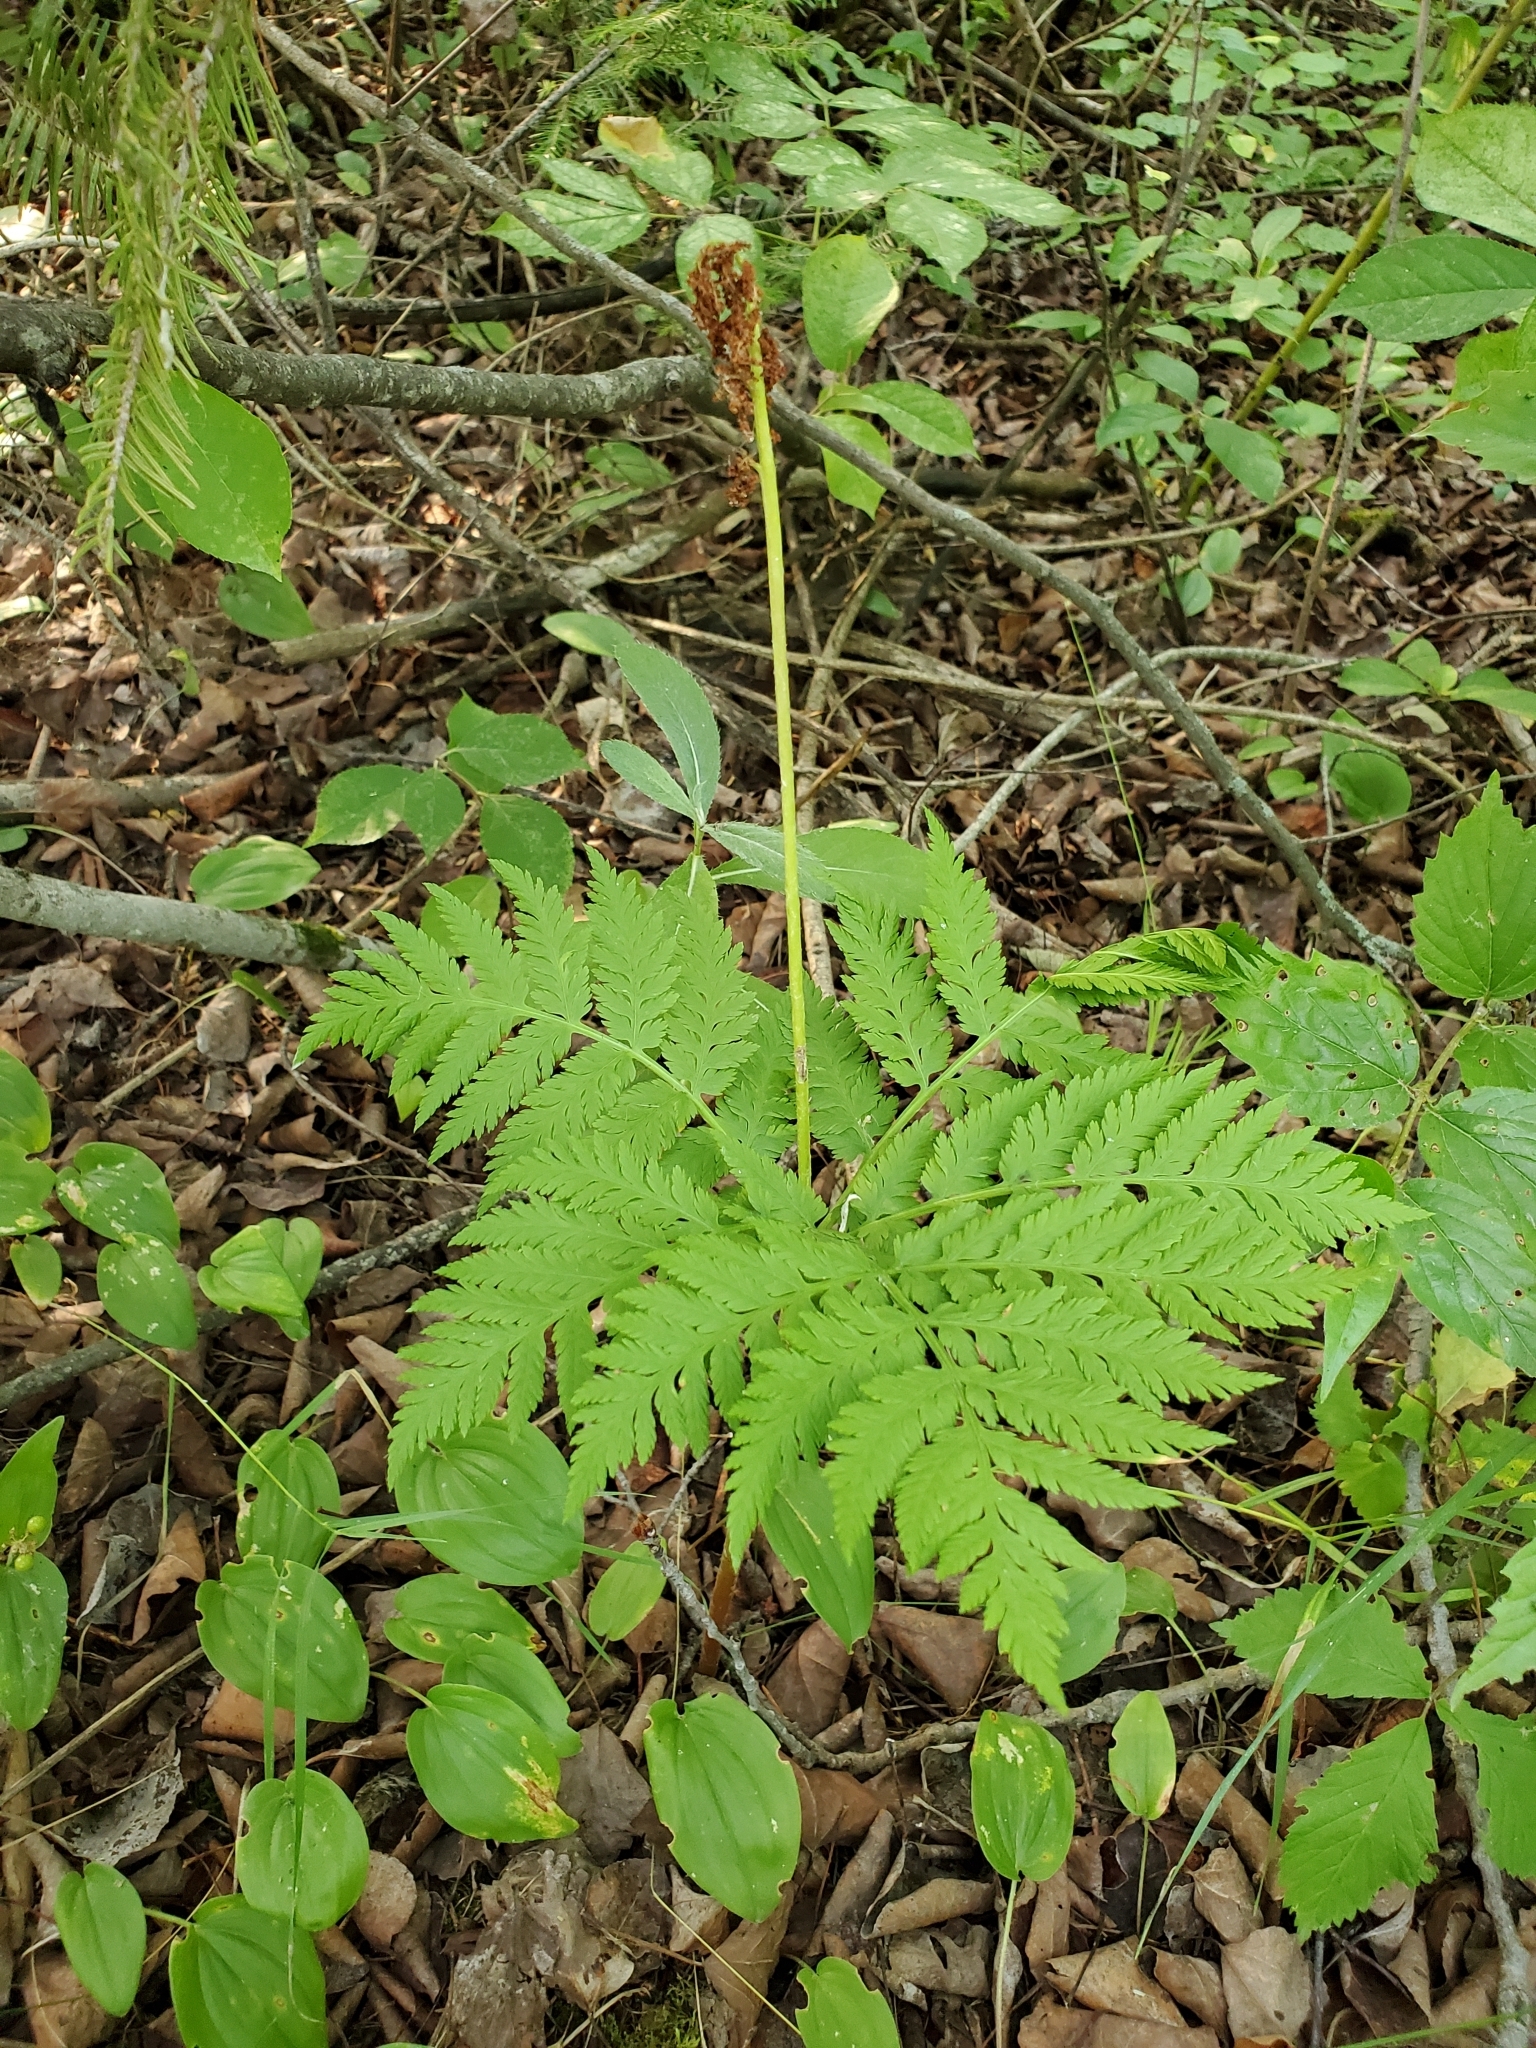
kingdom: Plantae
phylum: Tracheophyta
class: Polypodiopsida
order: Ophioglossales
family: Ophioglossaceae
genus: Botrypus
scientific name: Botrypus virginianus
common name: Common grapefern
